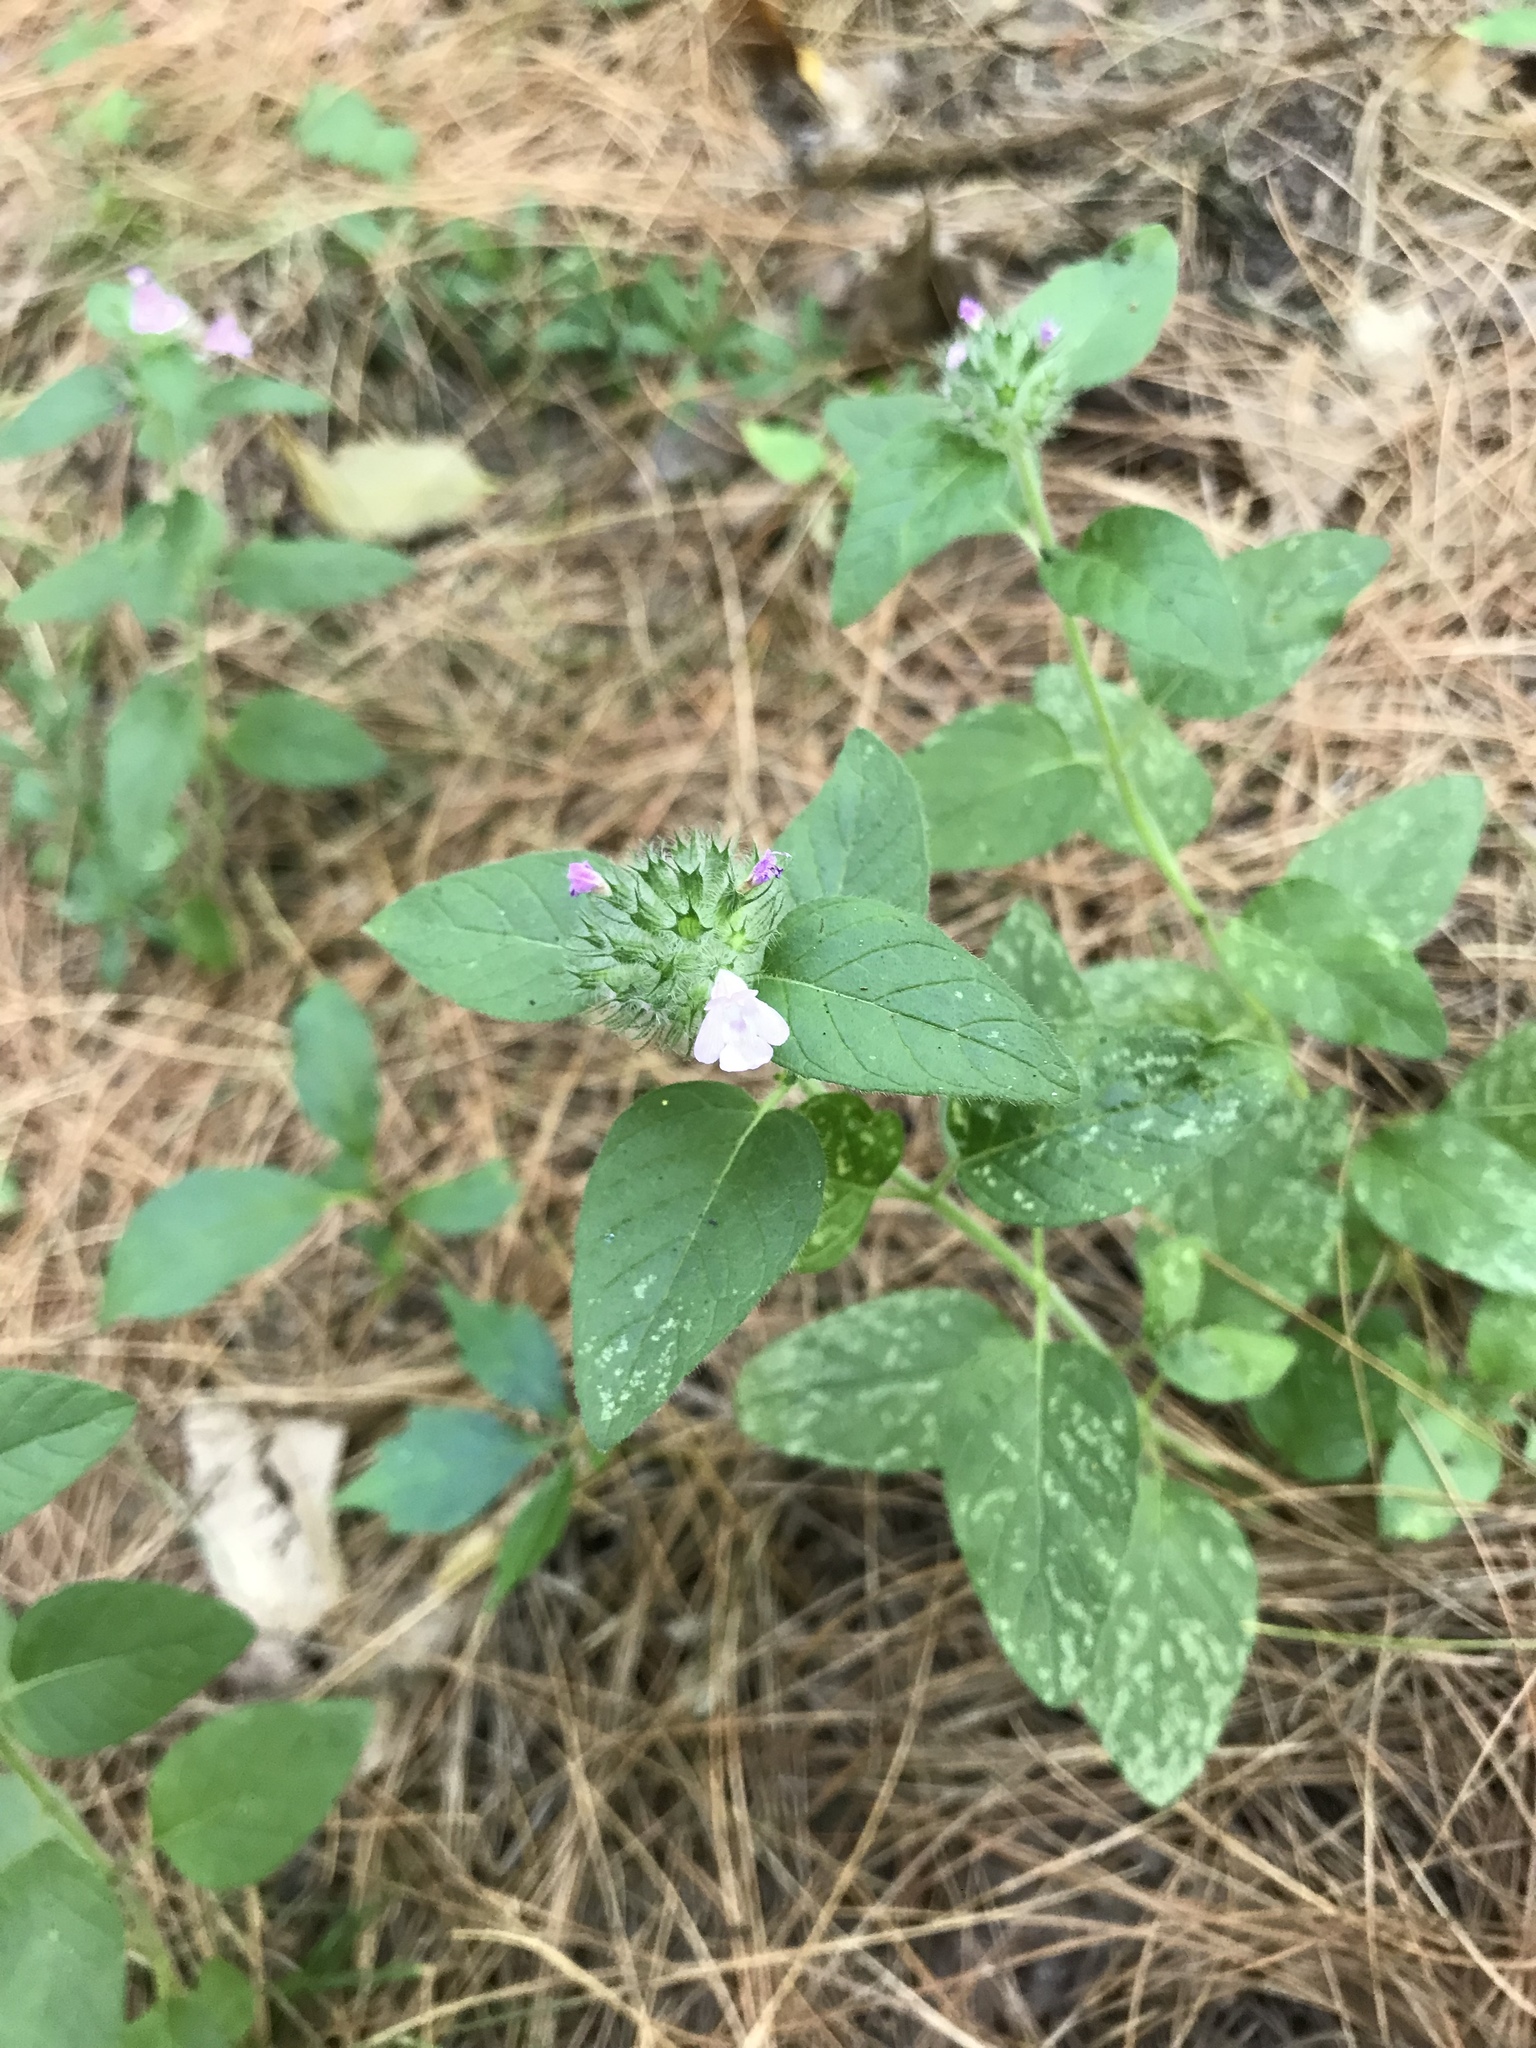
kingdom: Plantae
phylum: Tracheophyta
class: Magnoliopsida
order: Lamiales
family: Lamiaceae
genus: Clinopodium
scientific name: Clinopodium vulgare
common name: Wild basil
